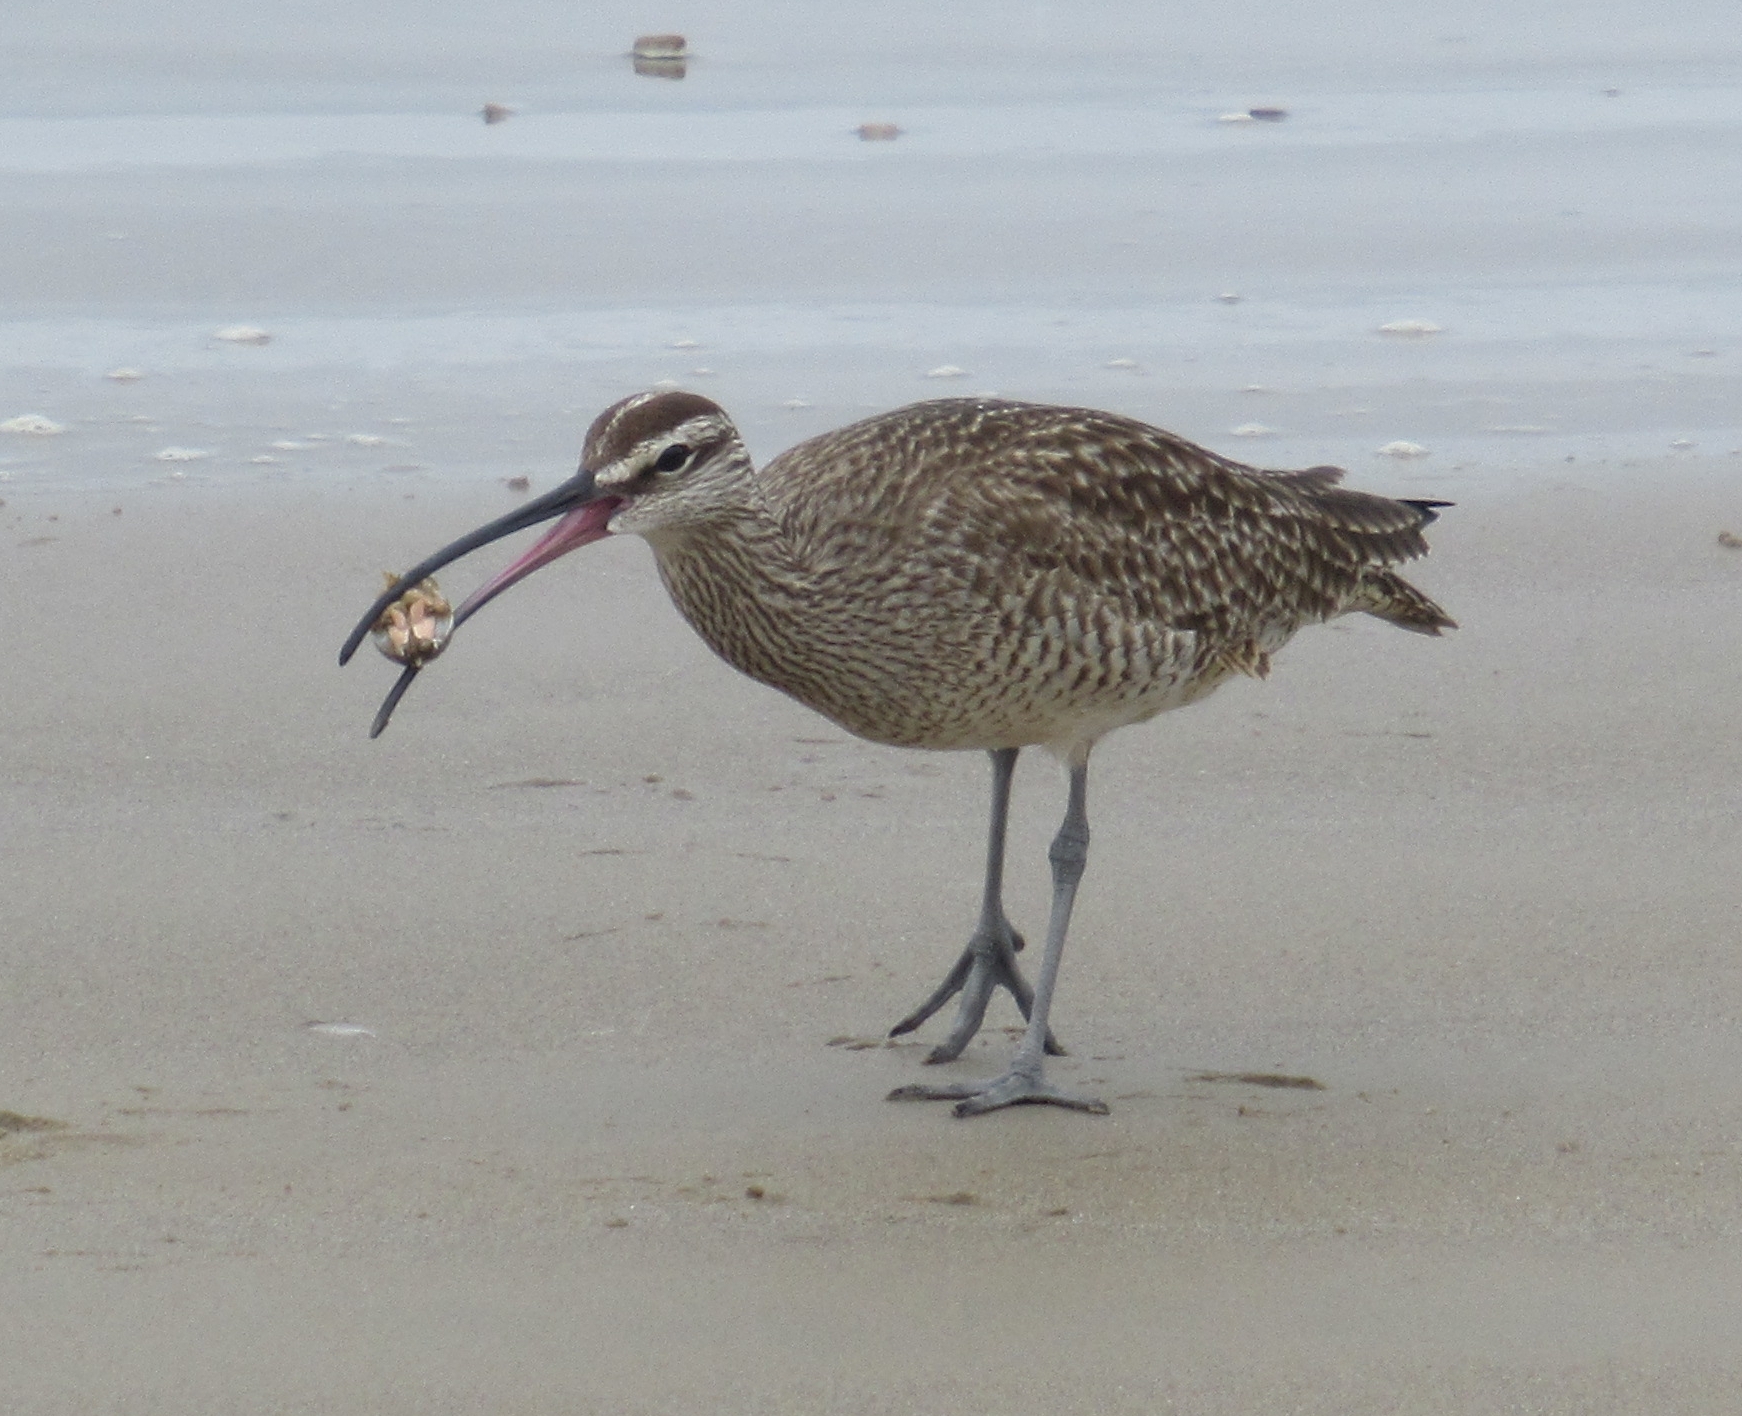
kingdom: Animalia
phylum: Chordata
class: Aves
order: Charadriiformes
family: Scolopacidae
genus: Numenius
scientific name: Numenius phaeopus
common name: Whimbrel
